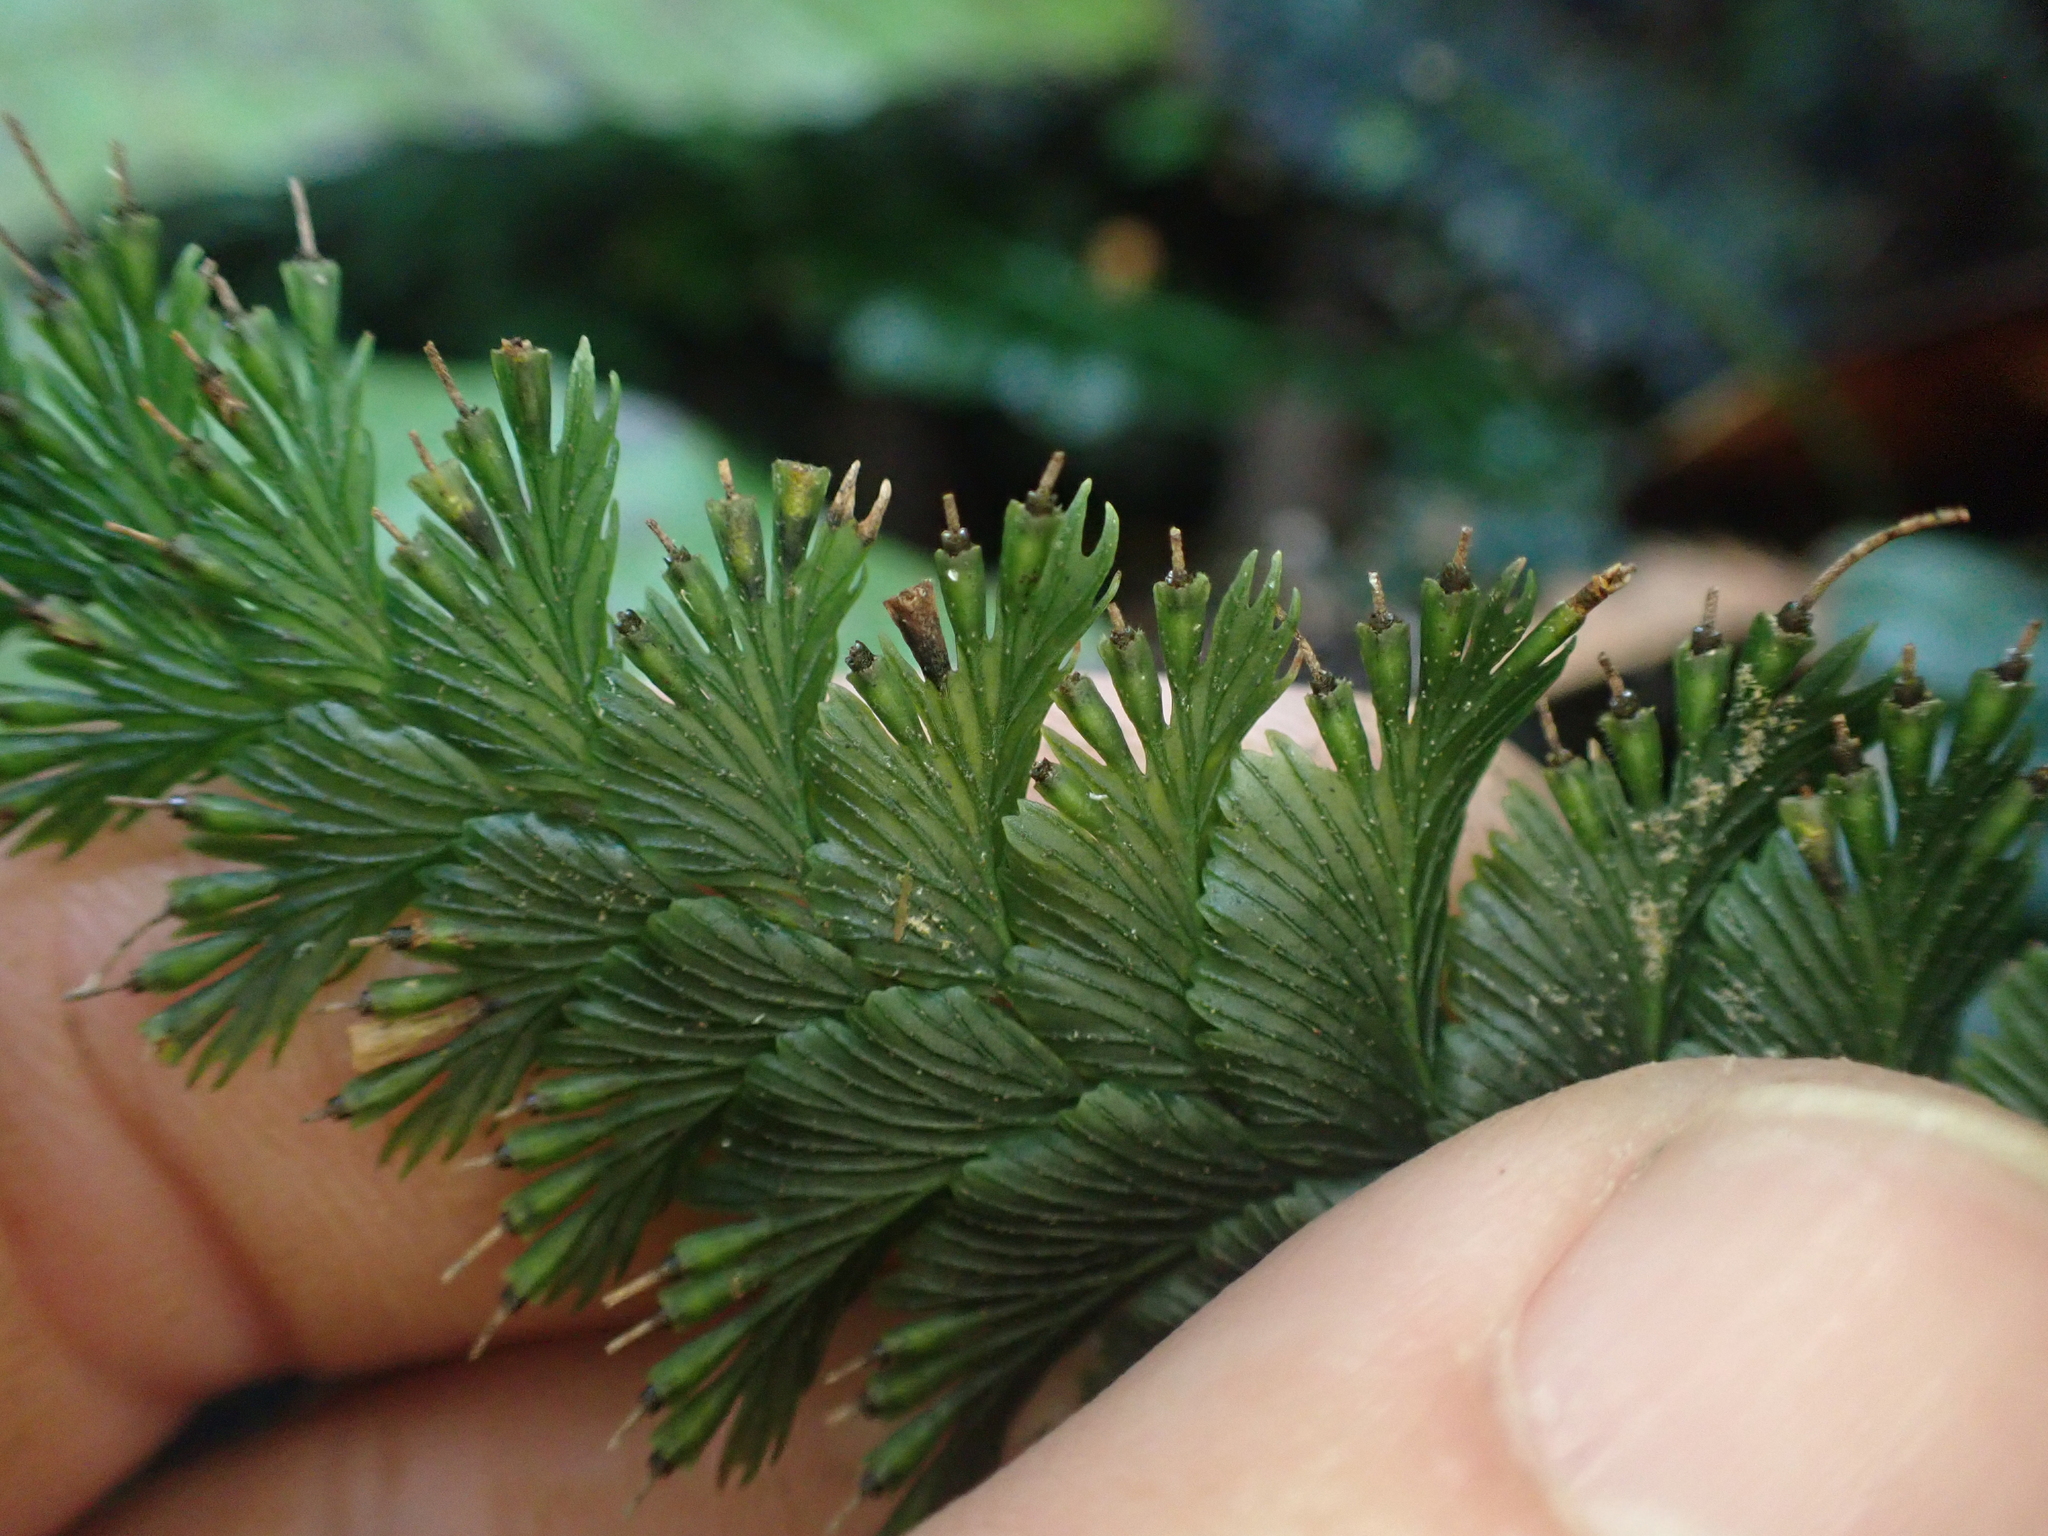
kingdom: Plantae
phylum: Tracheophyta
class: Polypodiopsida
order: Hymenophyllales
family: Hymenophyllaceae
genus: Cephalomanes
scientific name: Cephalomanes laciniatum
